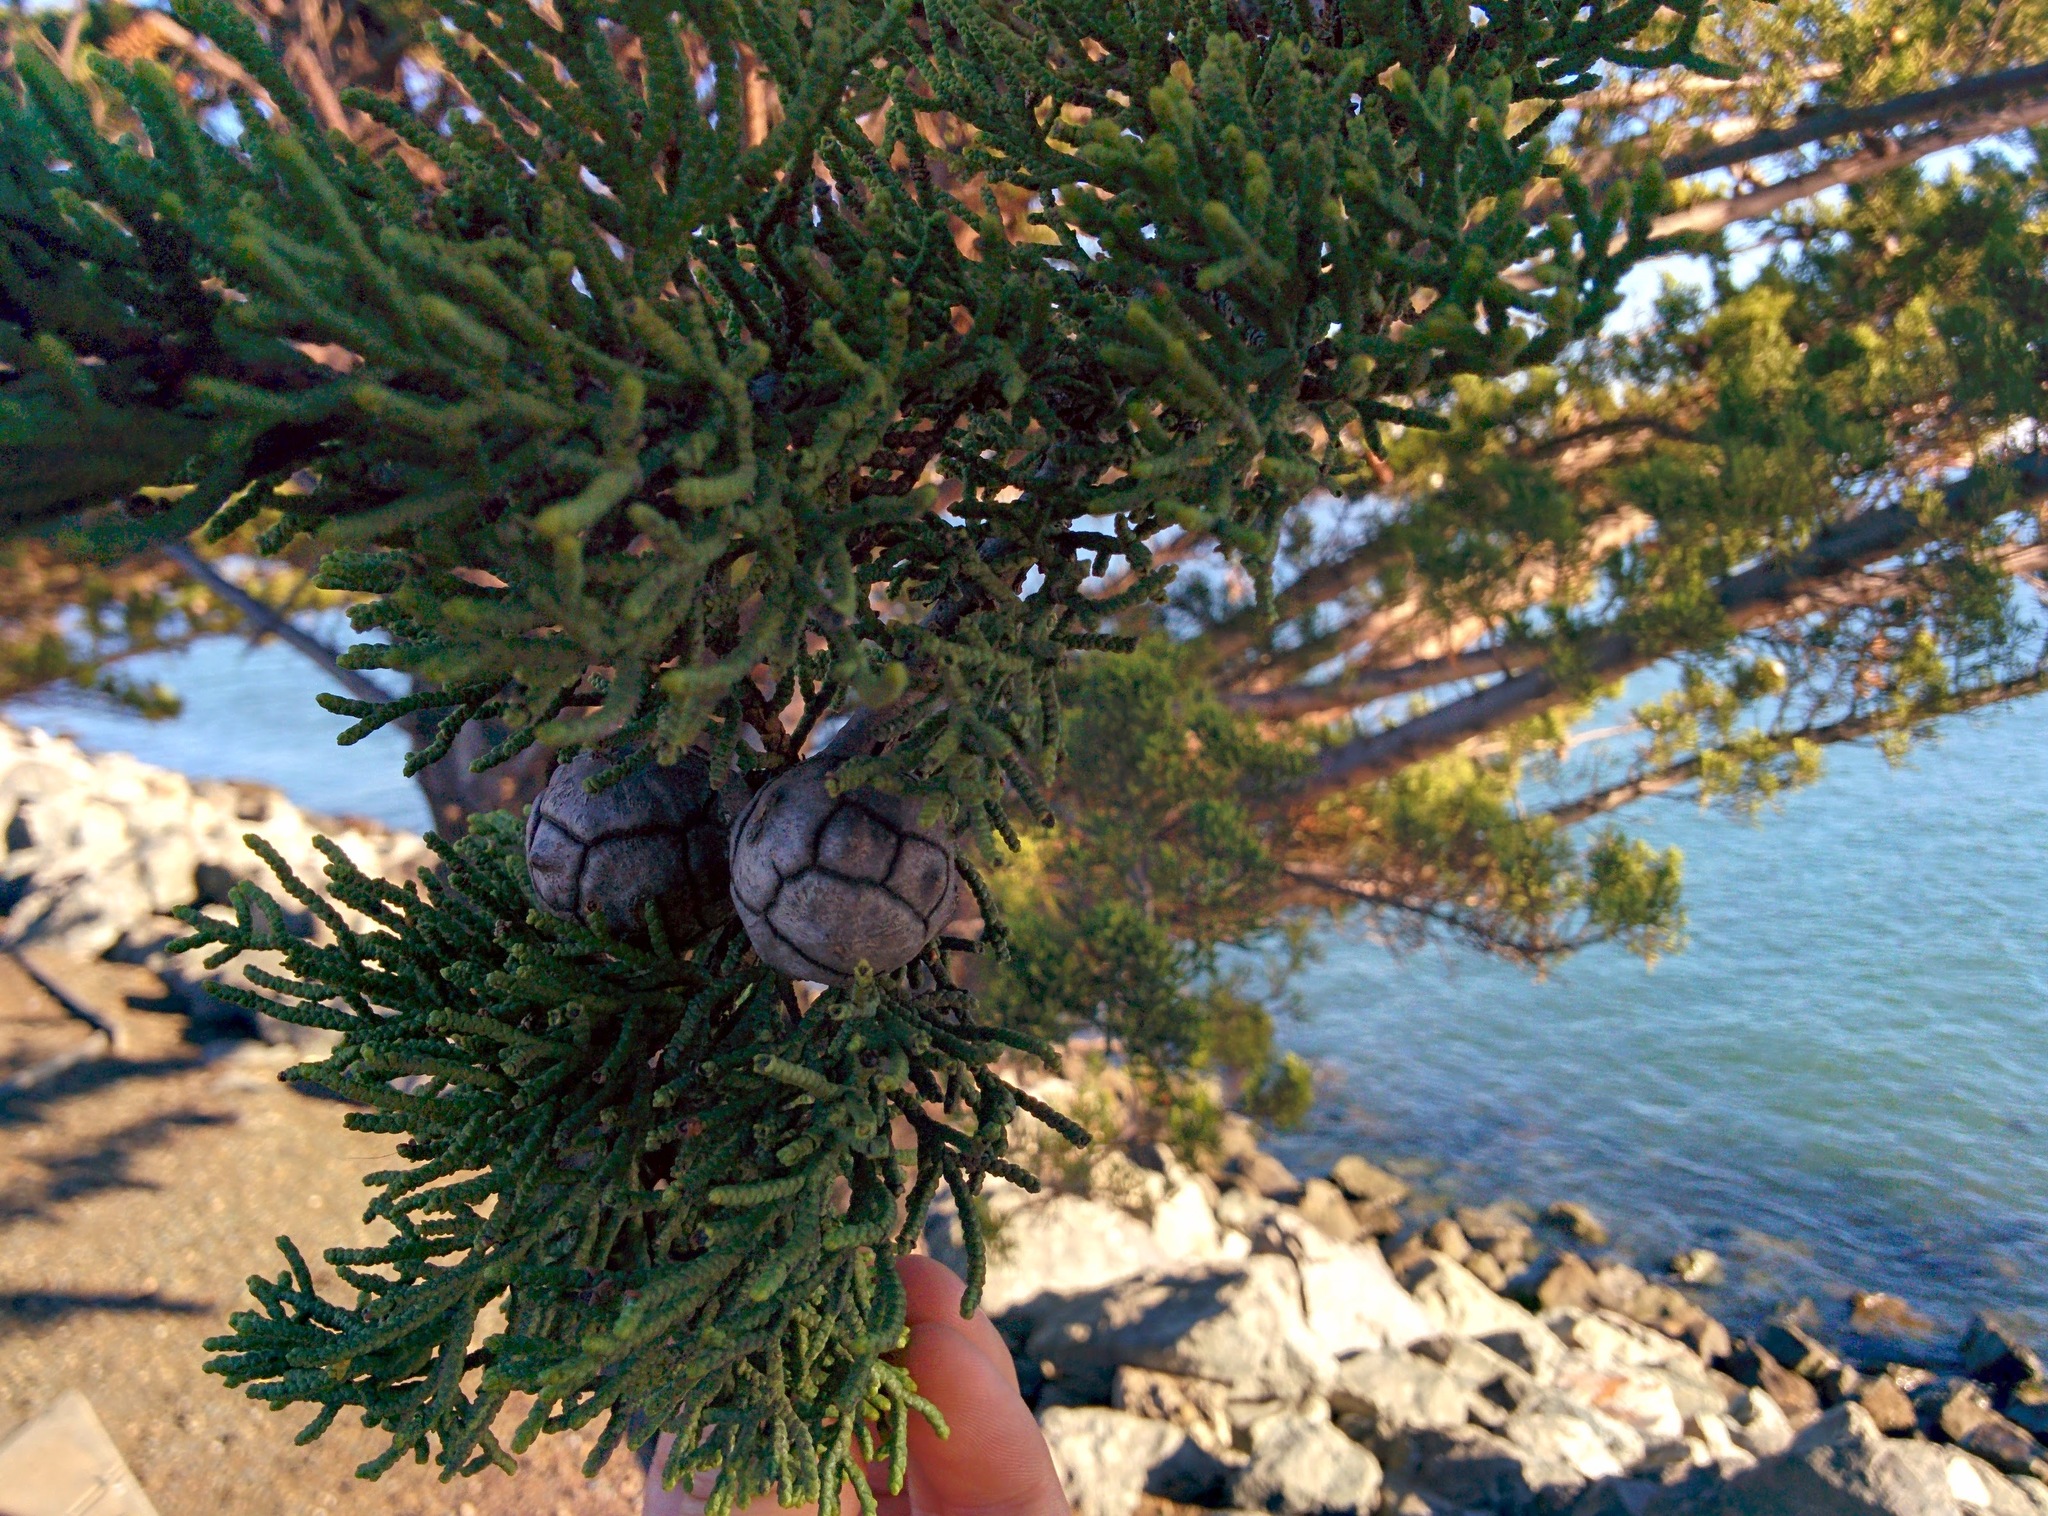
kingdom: Plantae
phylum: Tracheophyta
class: Pinopsida
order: Pinales
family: Cupressaceae
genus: Cupressus
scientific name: Cupressus macrocarpa
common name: Monterey cypress
